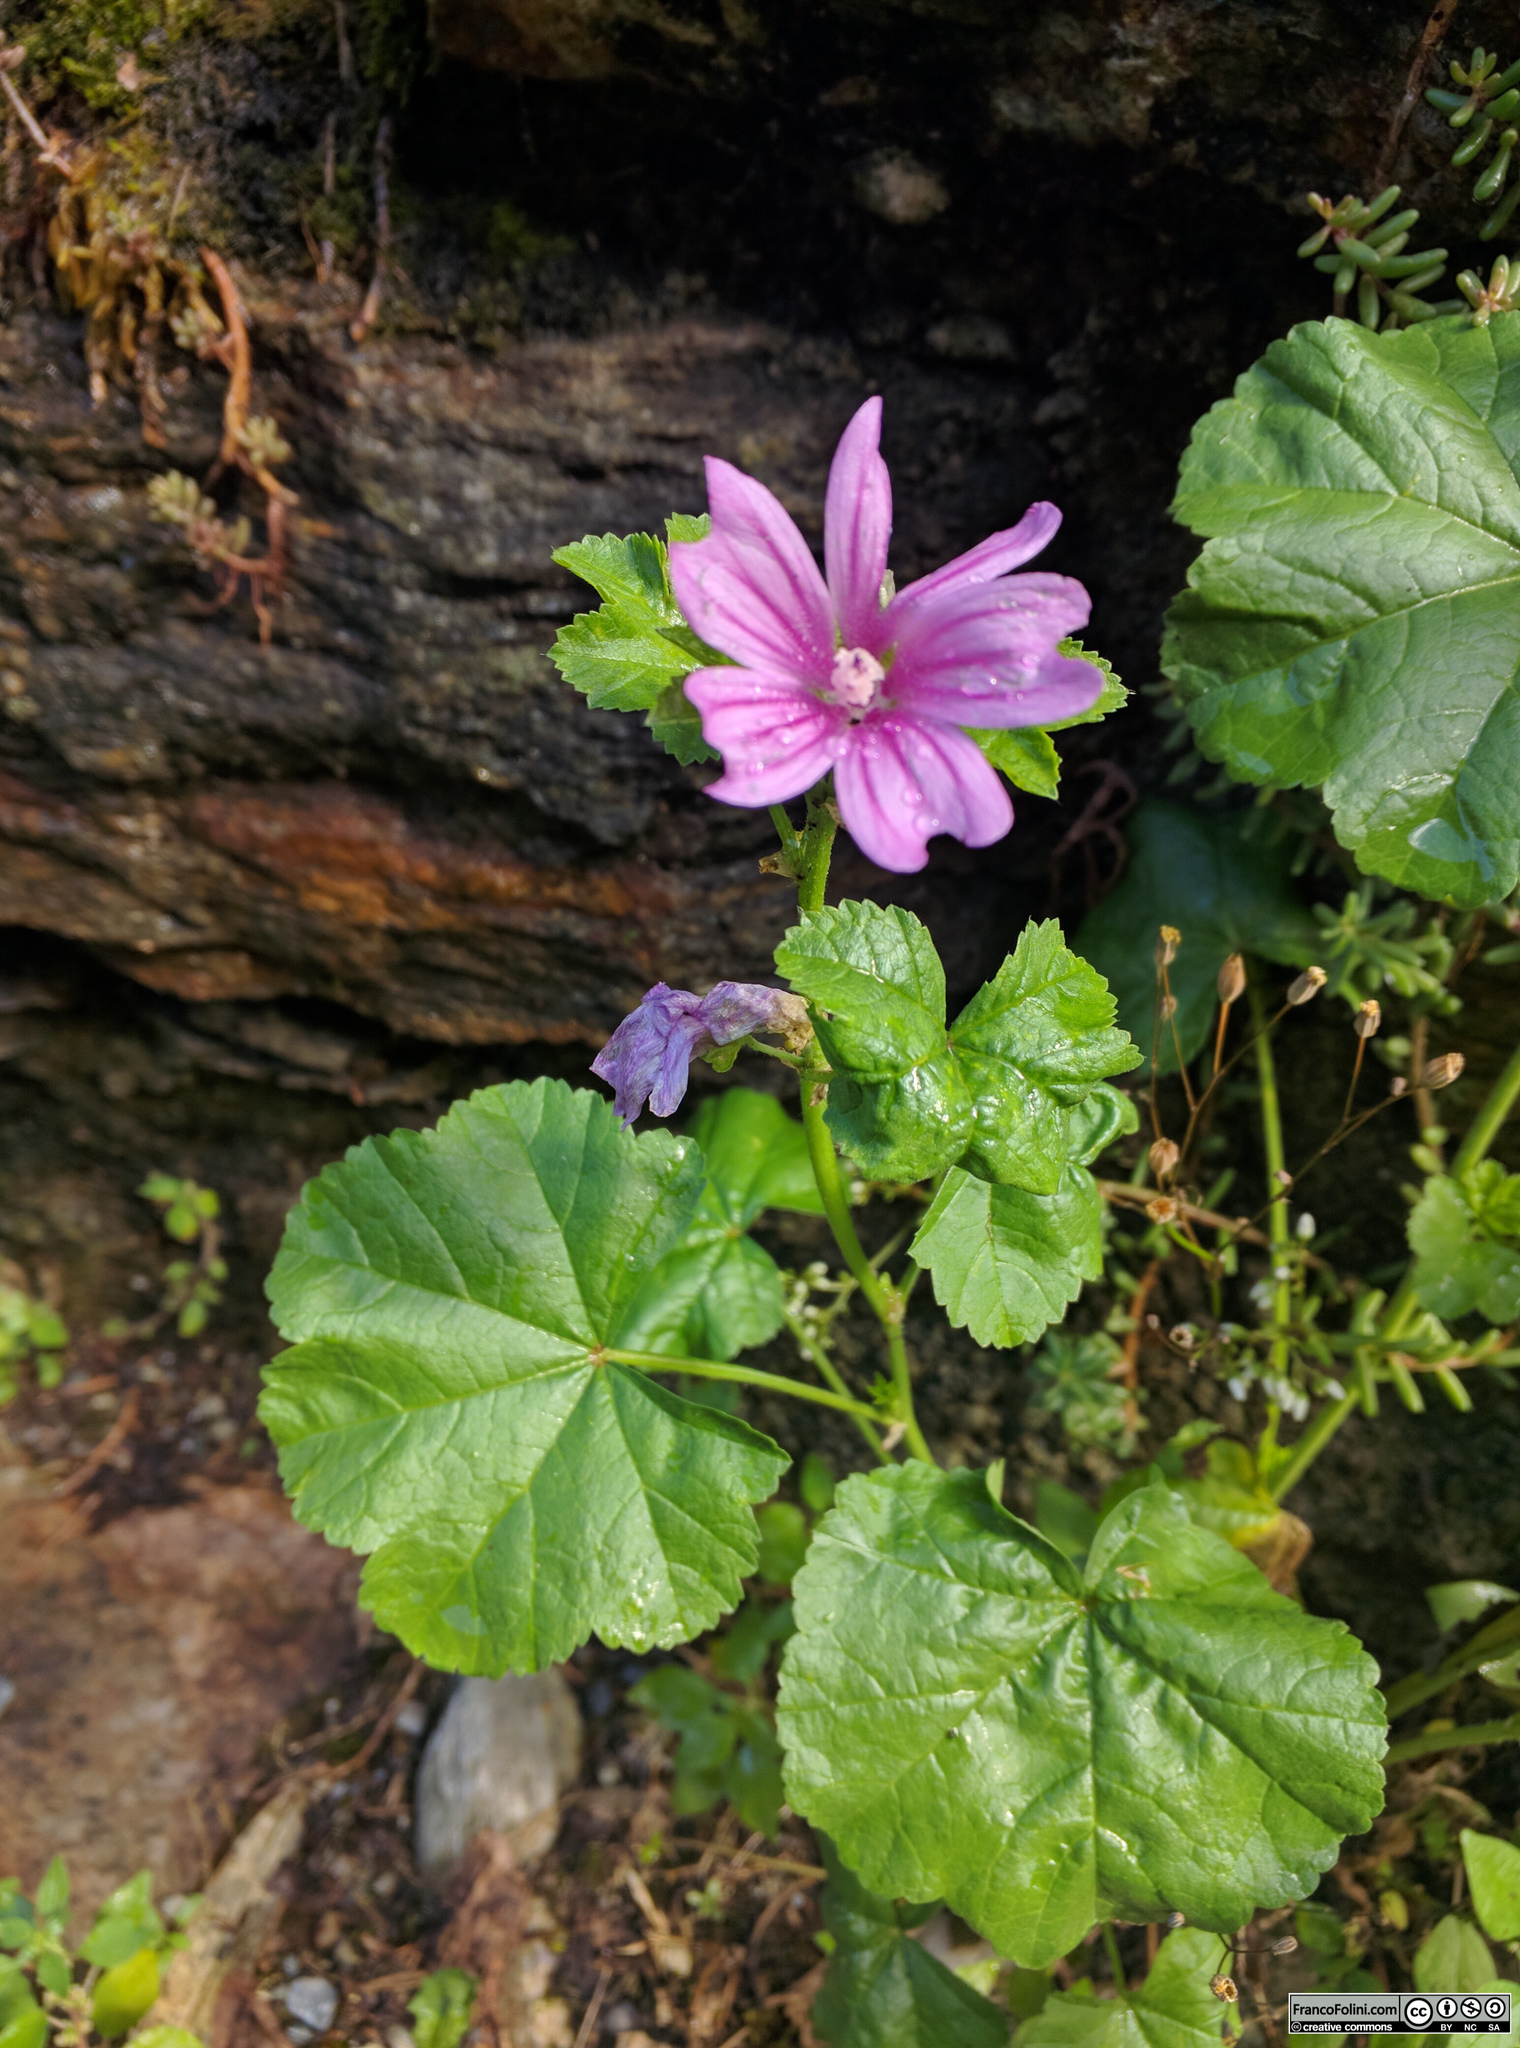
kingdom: Plantae
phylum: Tracheophyta
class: Magnoliopsida
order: Malvales
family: Malvaceae
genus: Malva
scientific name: Malva sylvestris
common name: Common mallow
